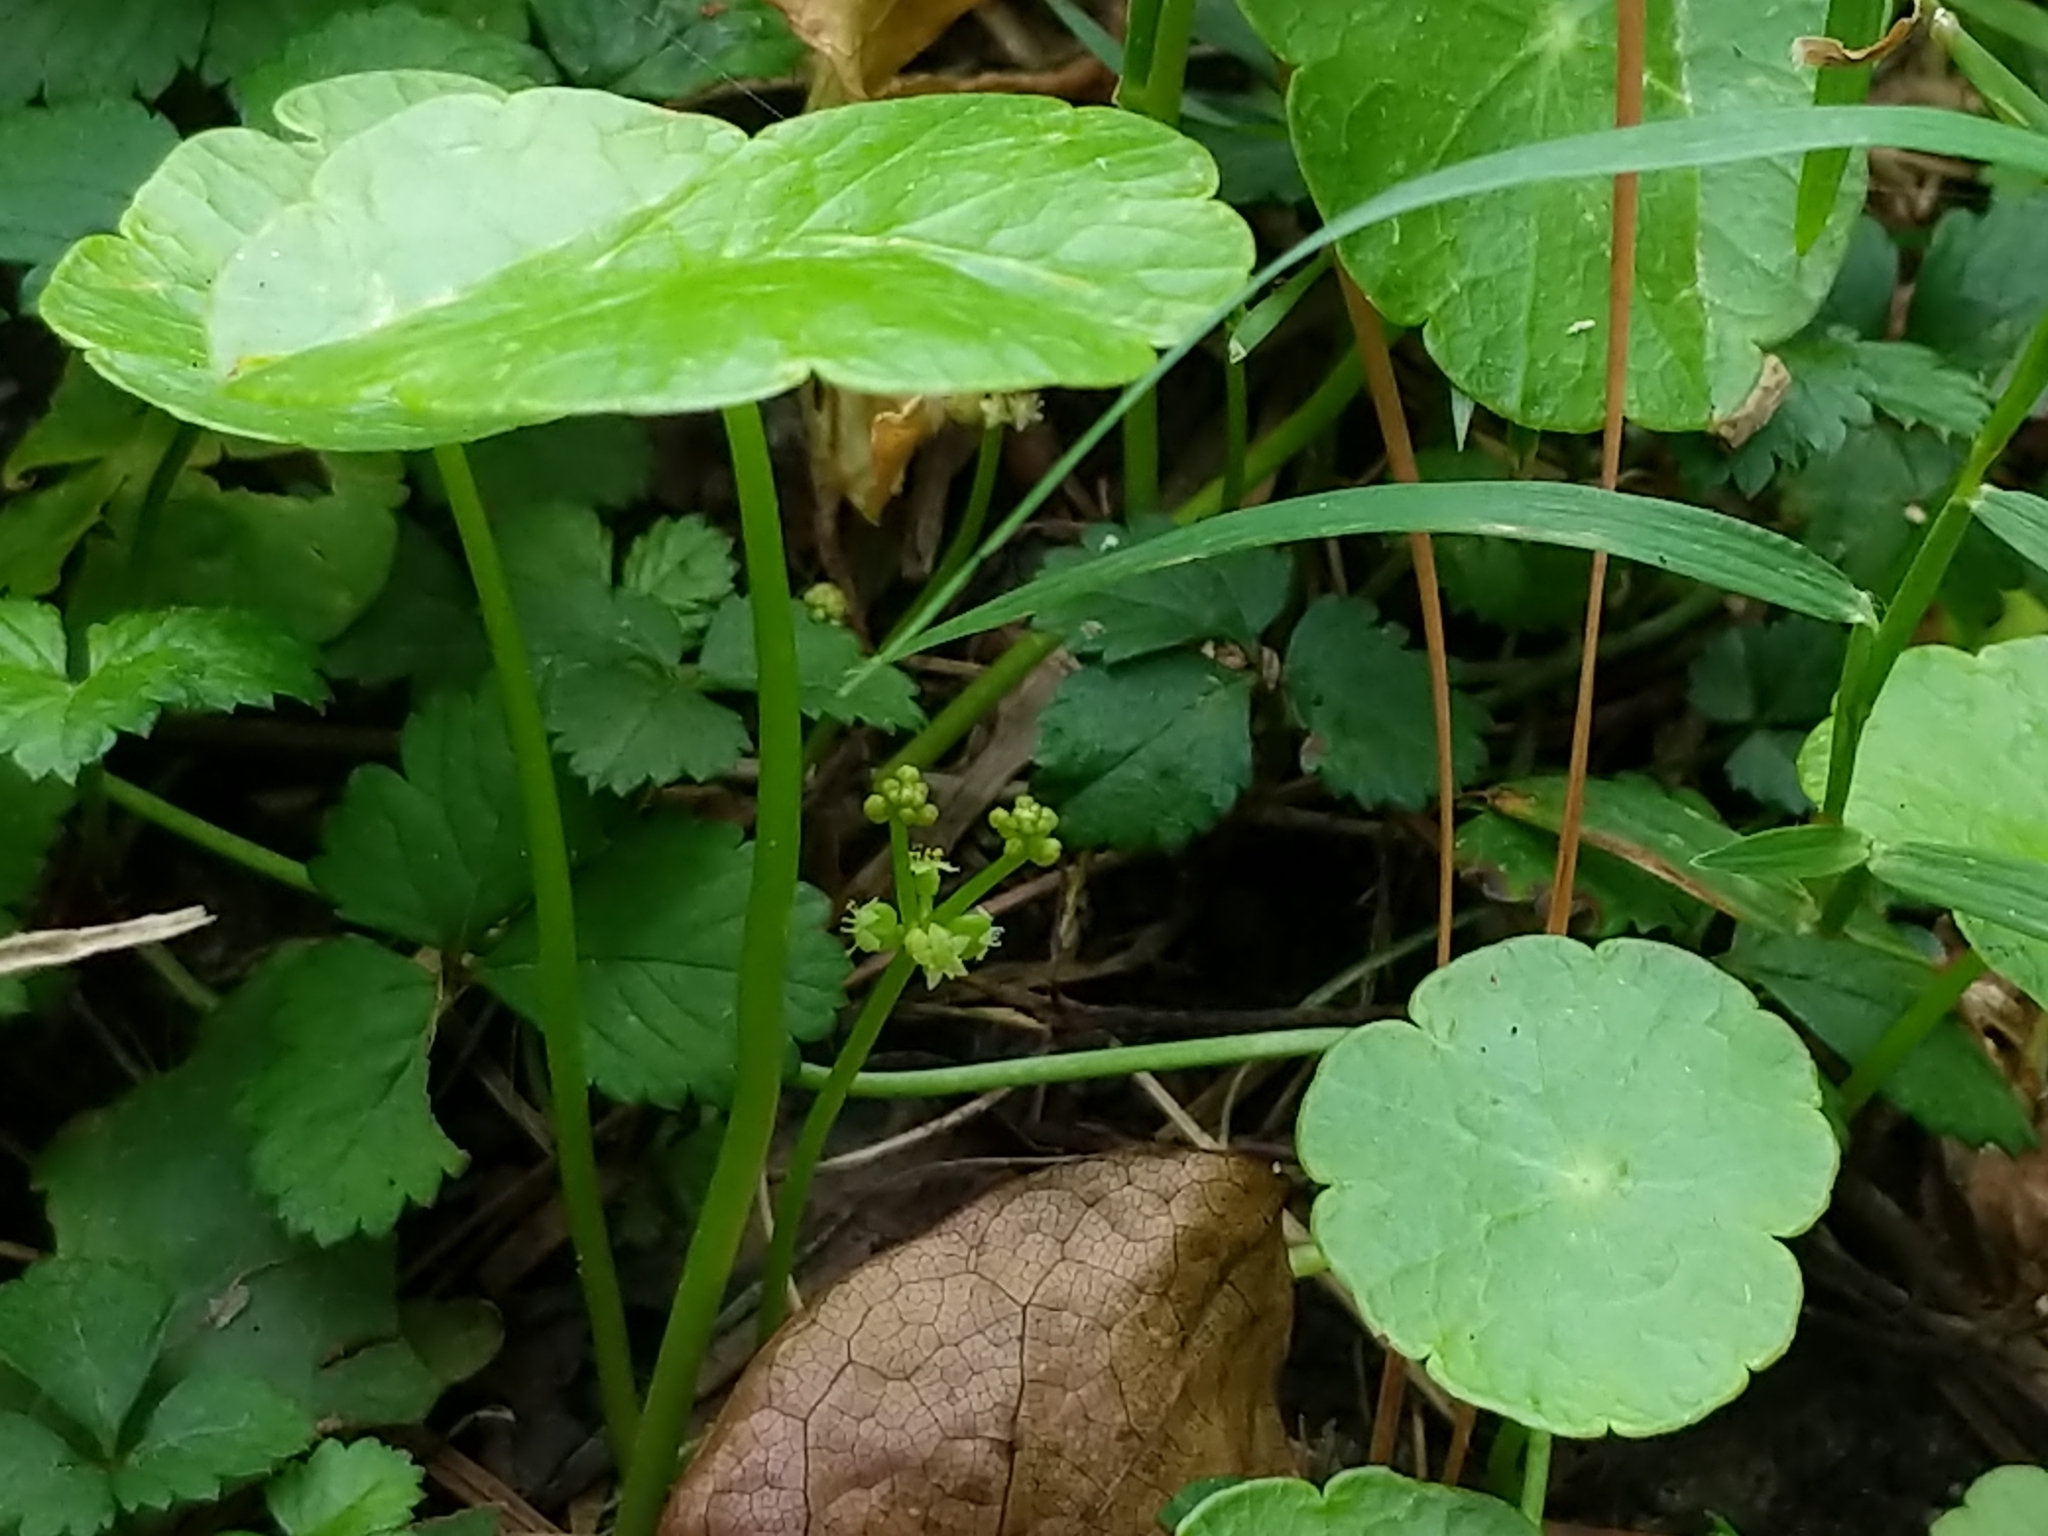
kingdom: Plantae
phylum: Tracheophyta
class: Magnoliopsida
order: Apiales
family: Araliaceae
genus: Hydrocotyle
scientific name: Hydrocotyle verticillata
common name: Whorled marshpennywort
